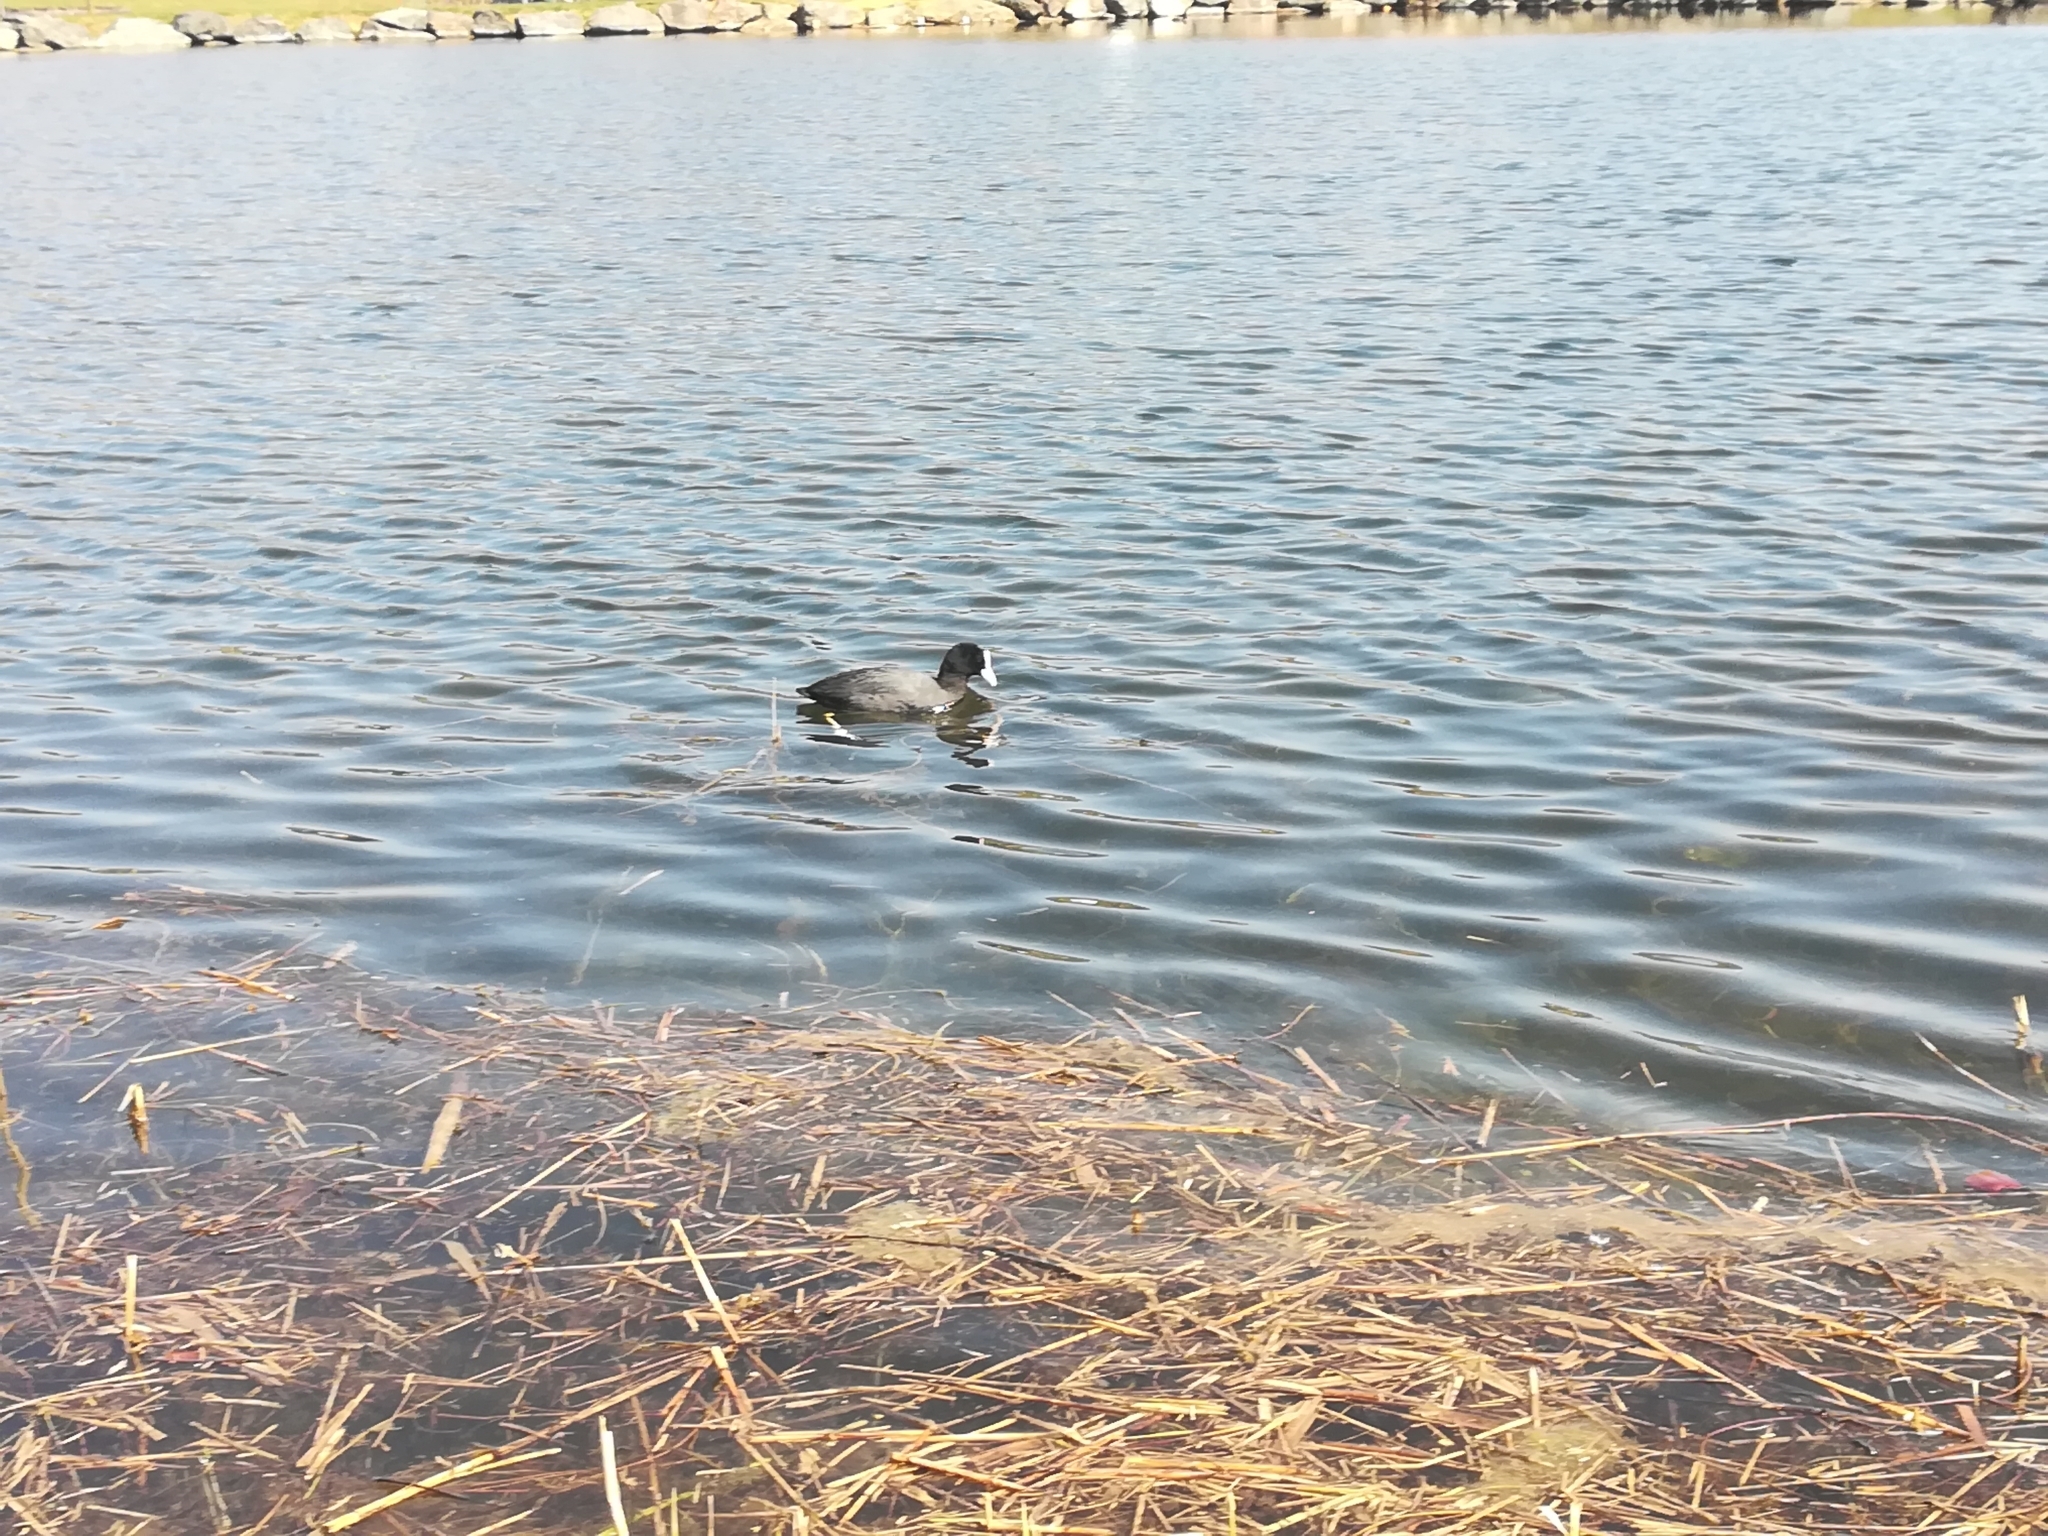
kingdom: Animalia
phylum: Chordata
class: Aves
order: Gruiformes
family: Rallidae
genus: Fulica
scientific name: Fulica atra
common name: Eurasian coot
